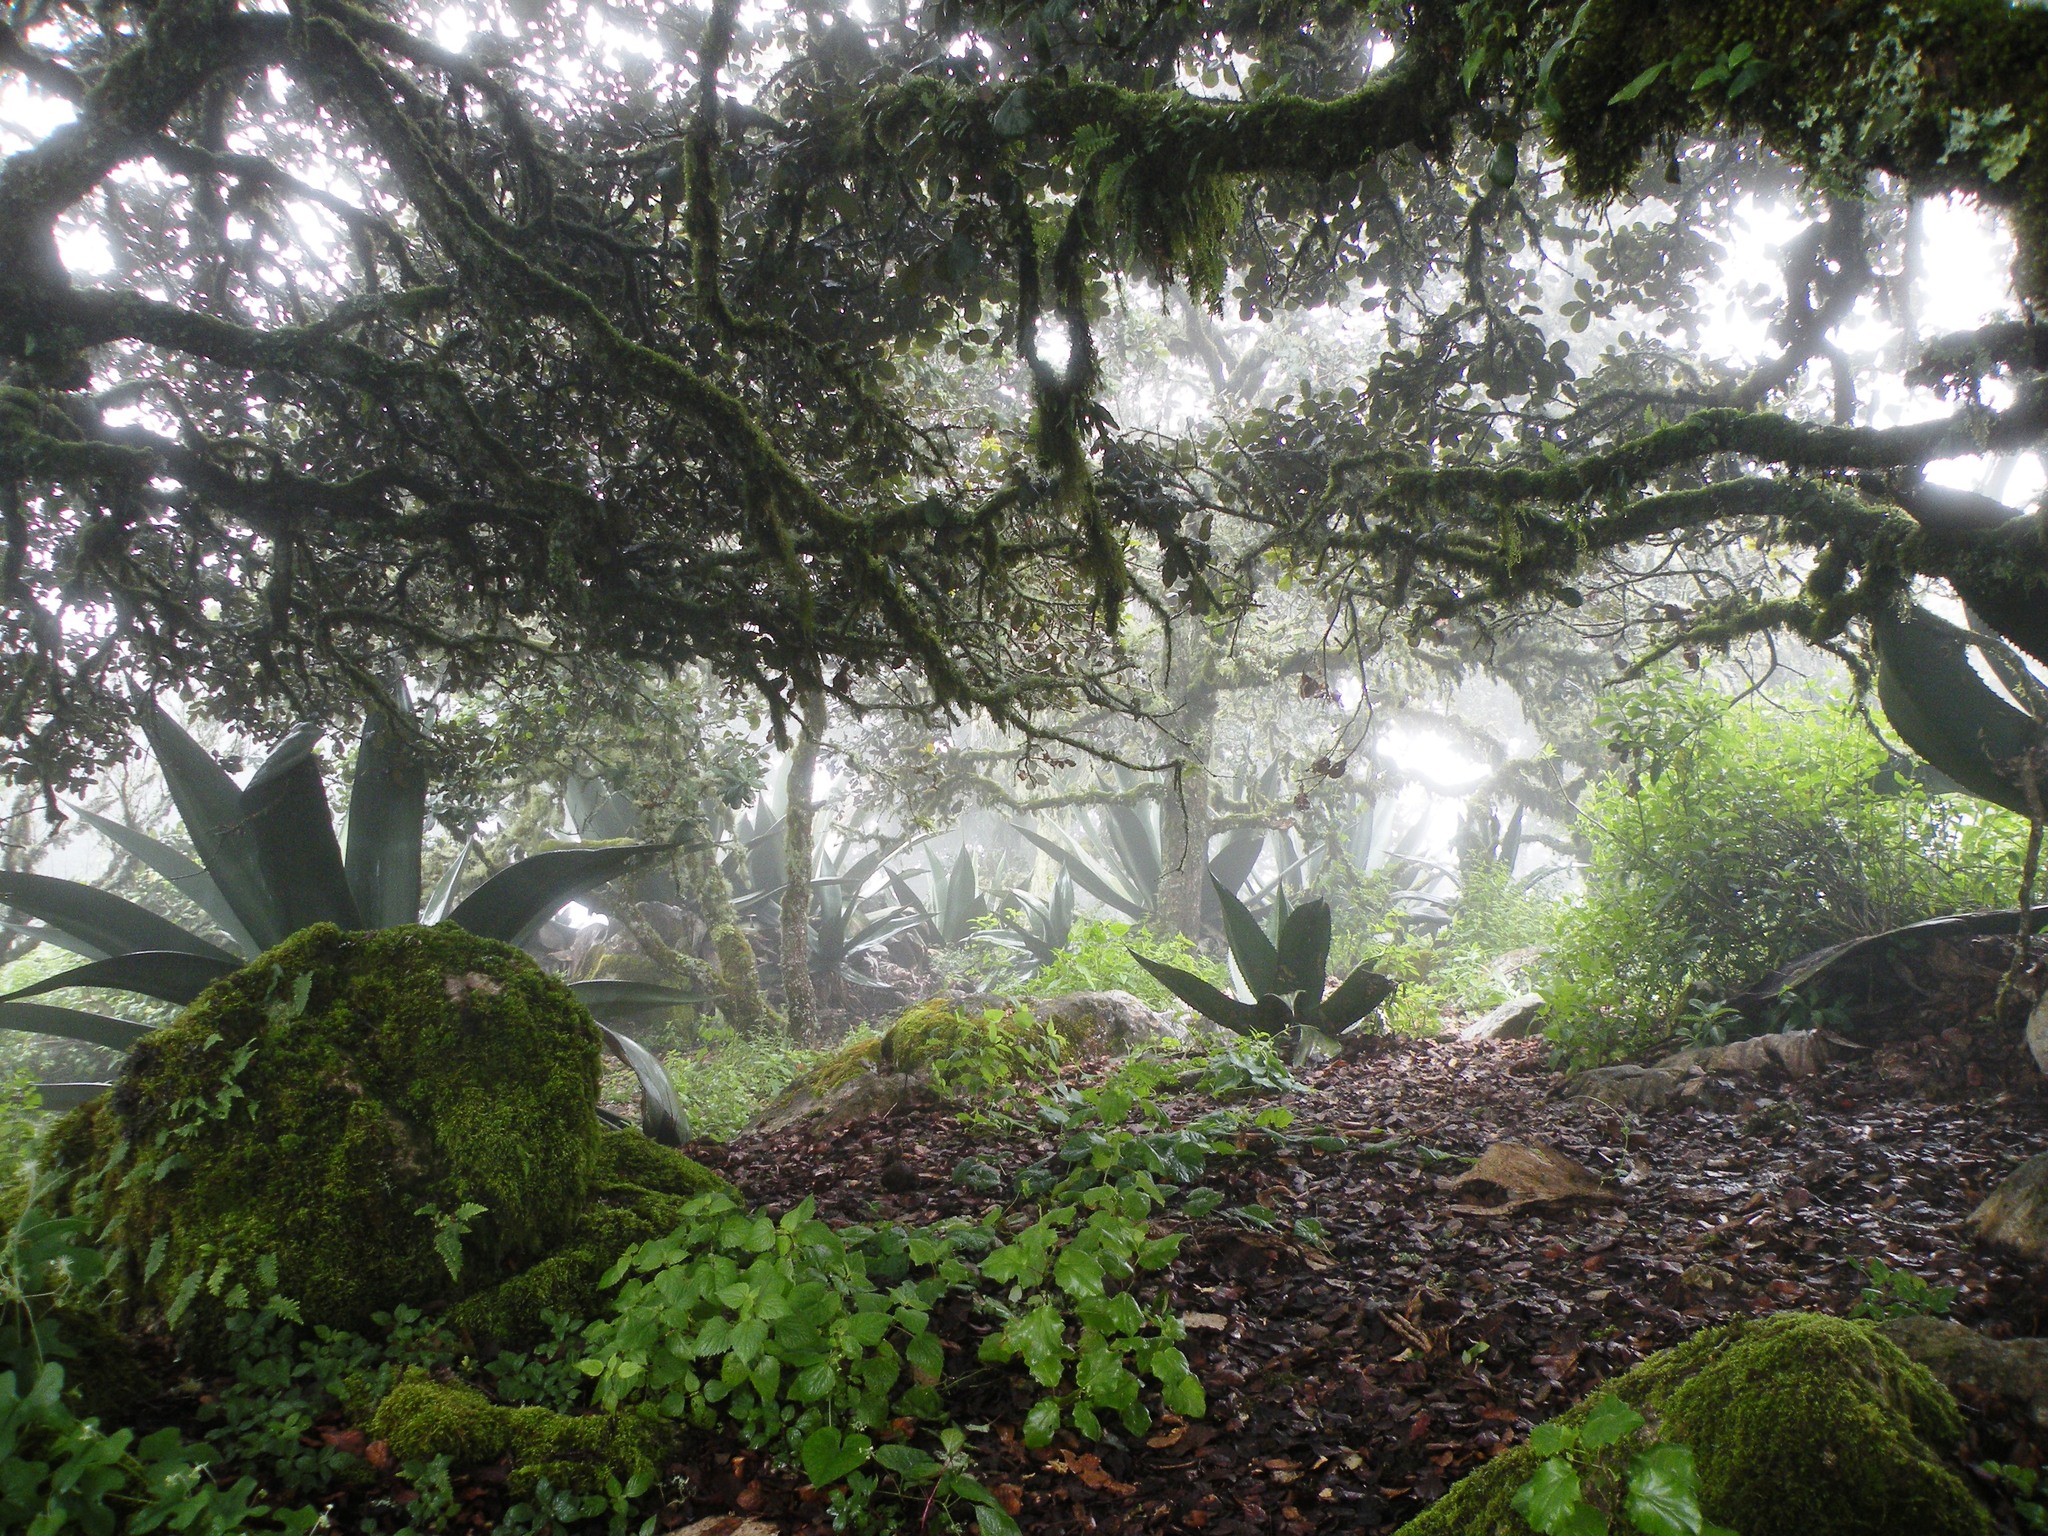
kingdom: Plantae
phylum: Tracheophyta
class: Liliopsida
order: Asparagales
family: Asparagaceae
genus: Agave
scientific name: Agave atrovirens
